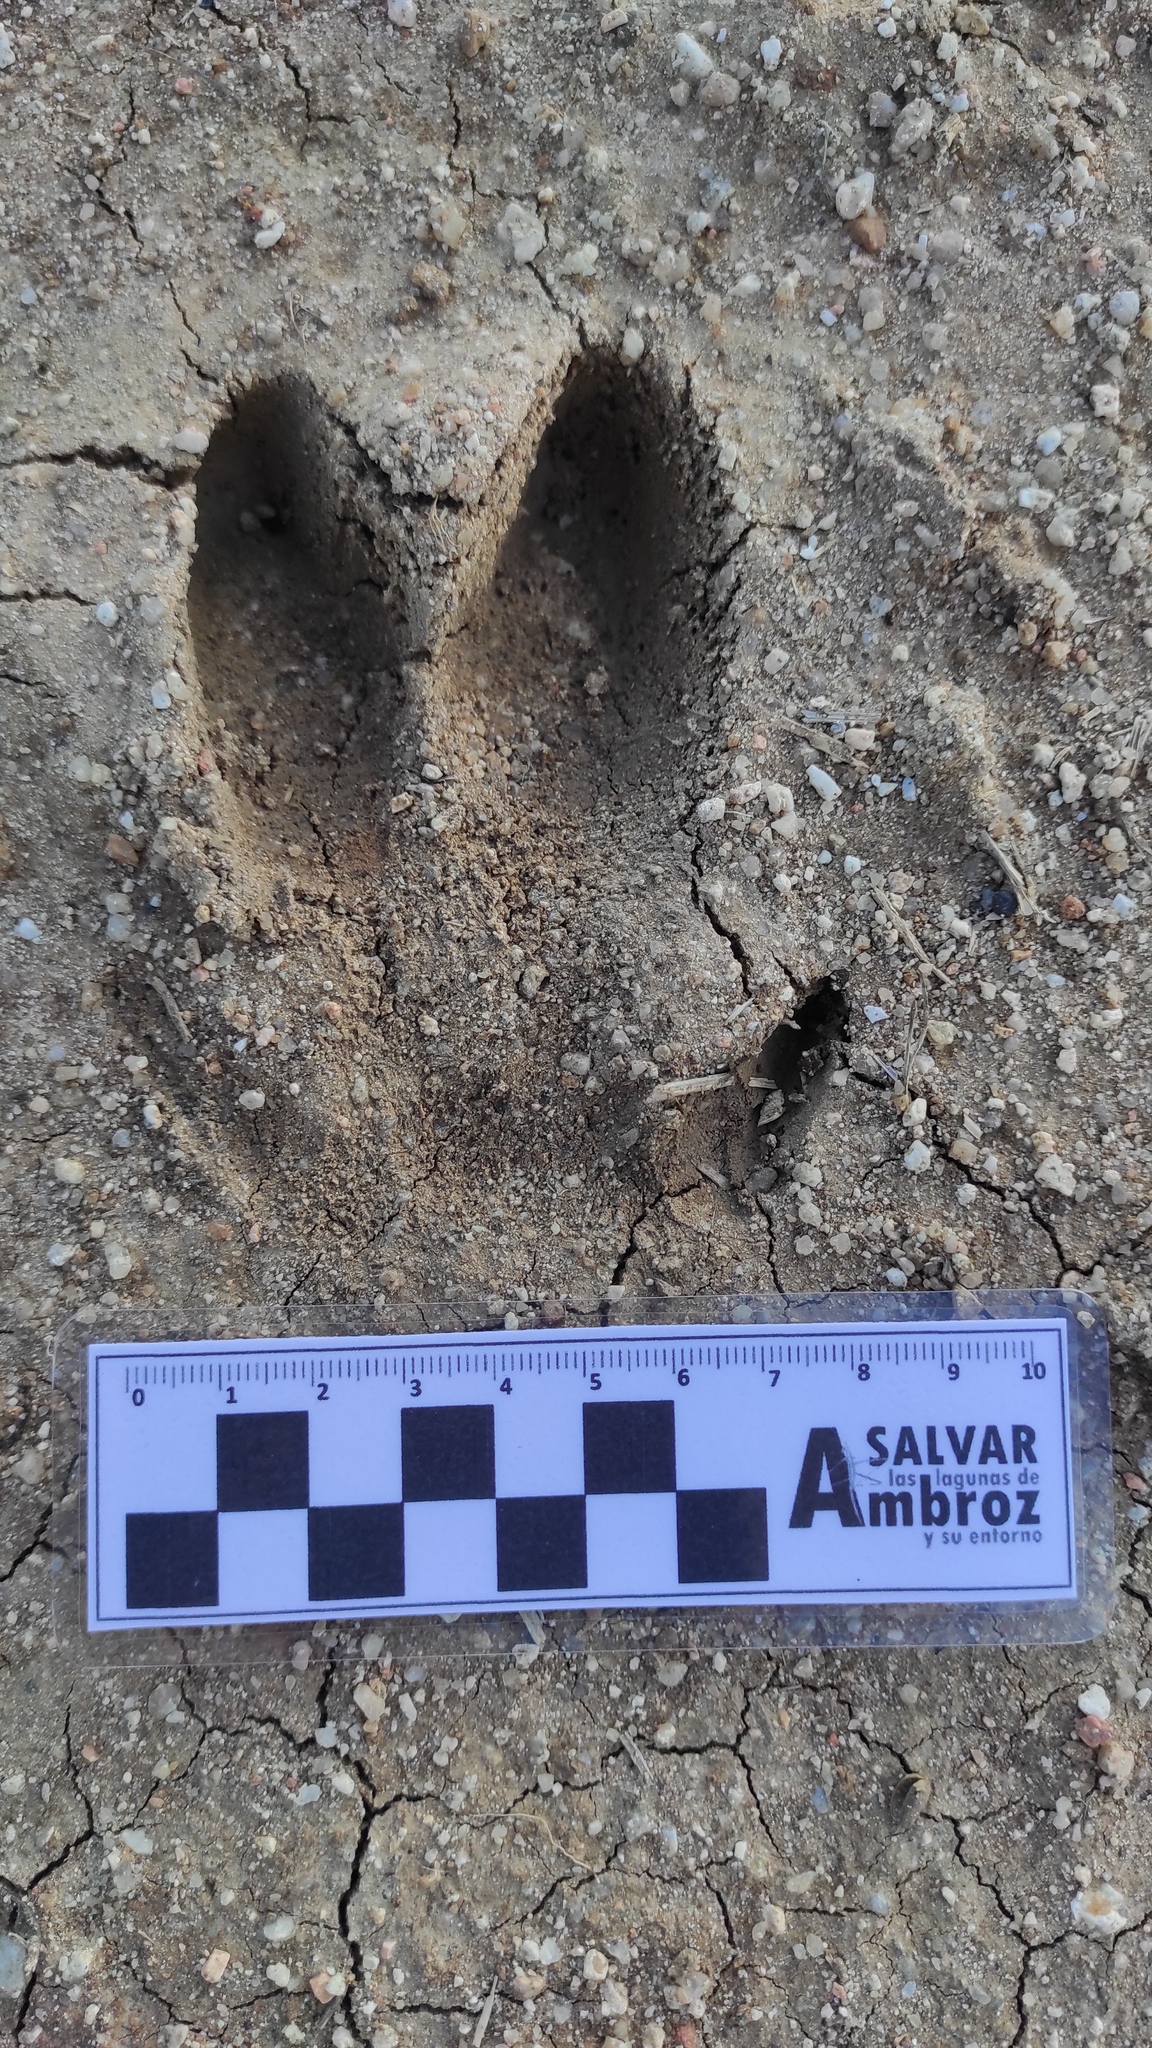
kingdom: Animalia
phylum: Chordata
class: Mammalia
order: Artiodactyla
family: Suidae
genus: Sus
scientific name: Sus scrofa
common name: Wild boar
